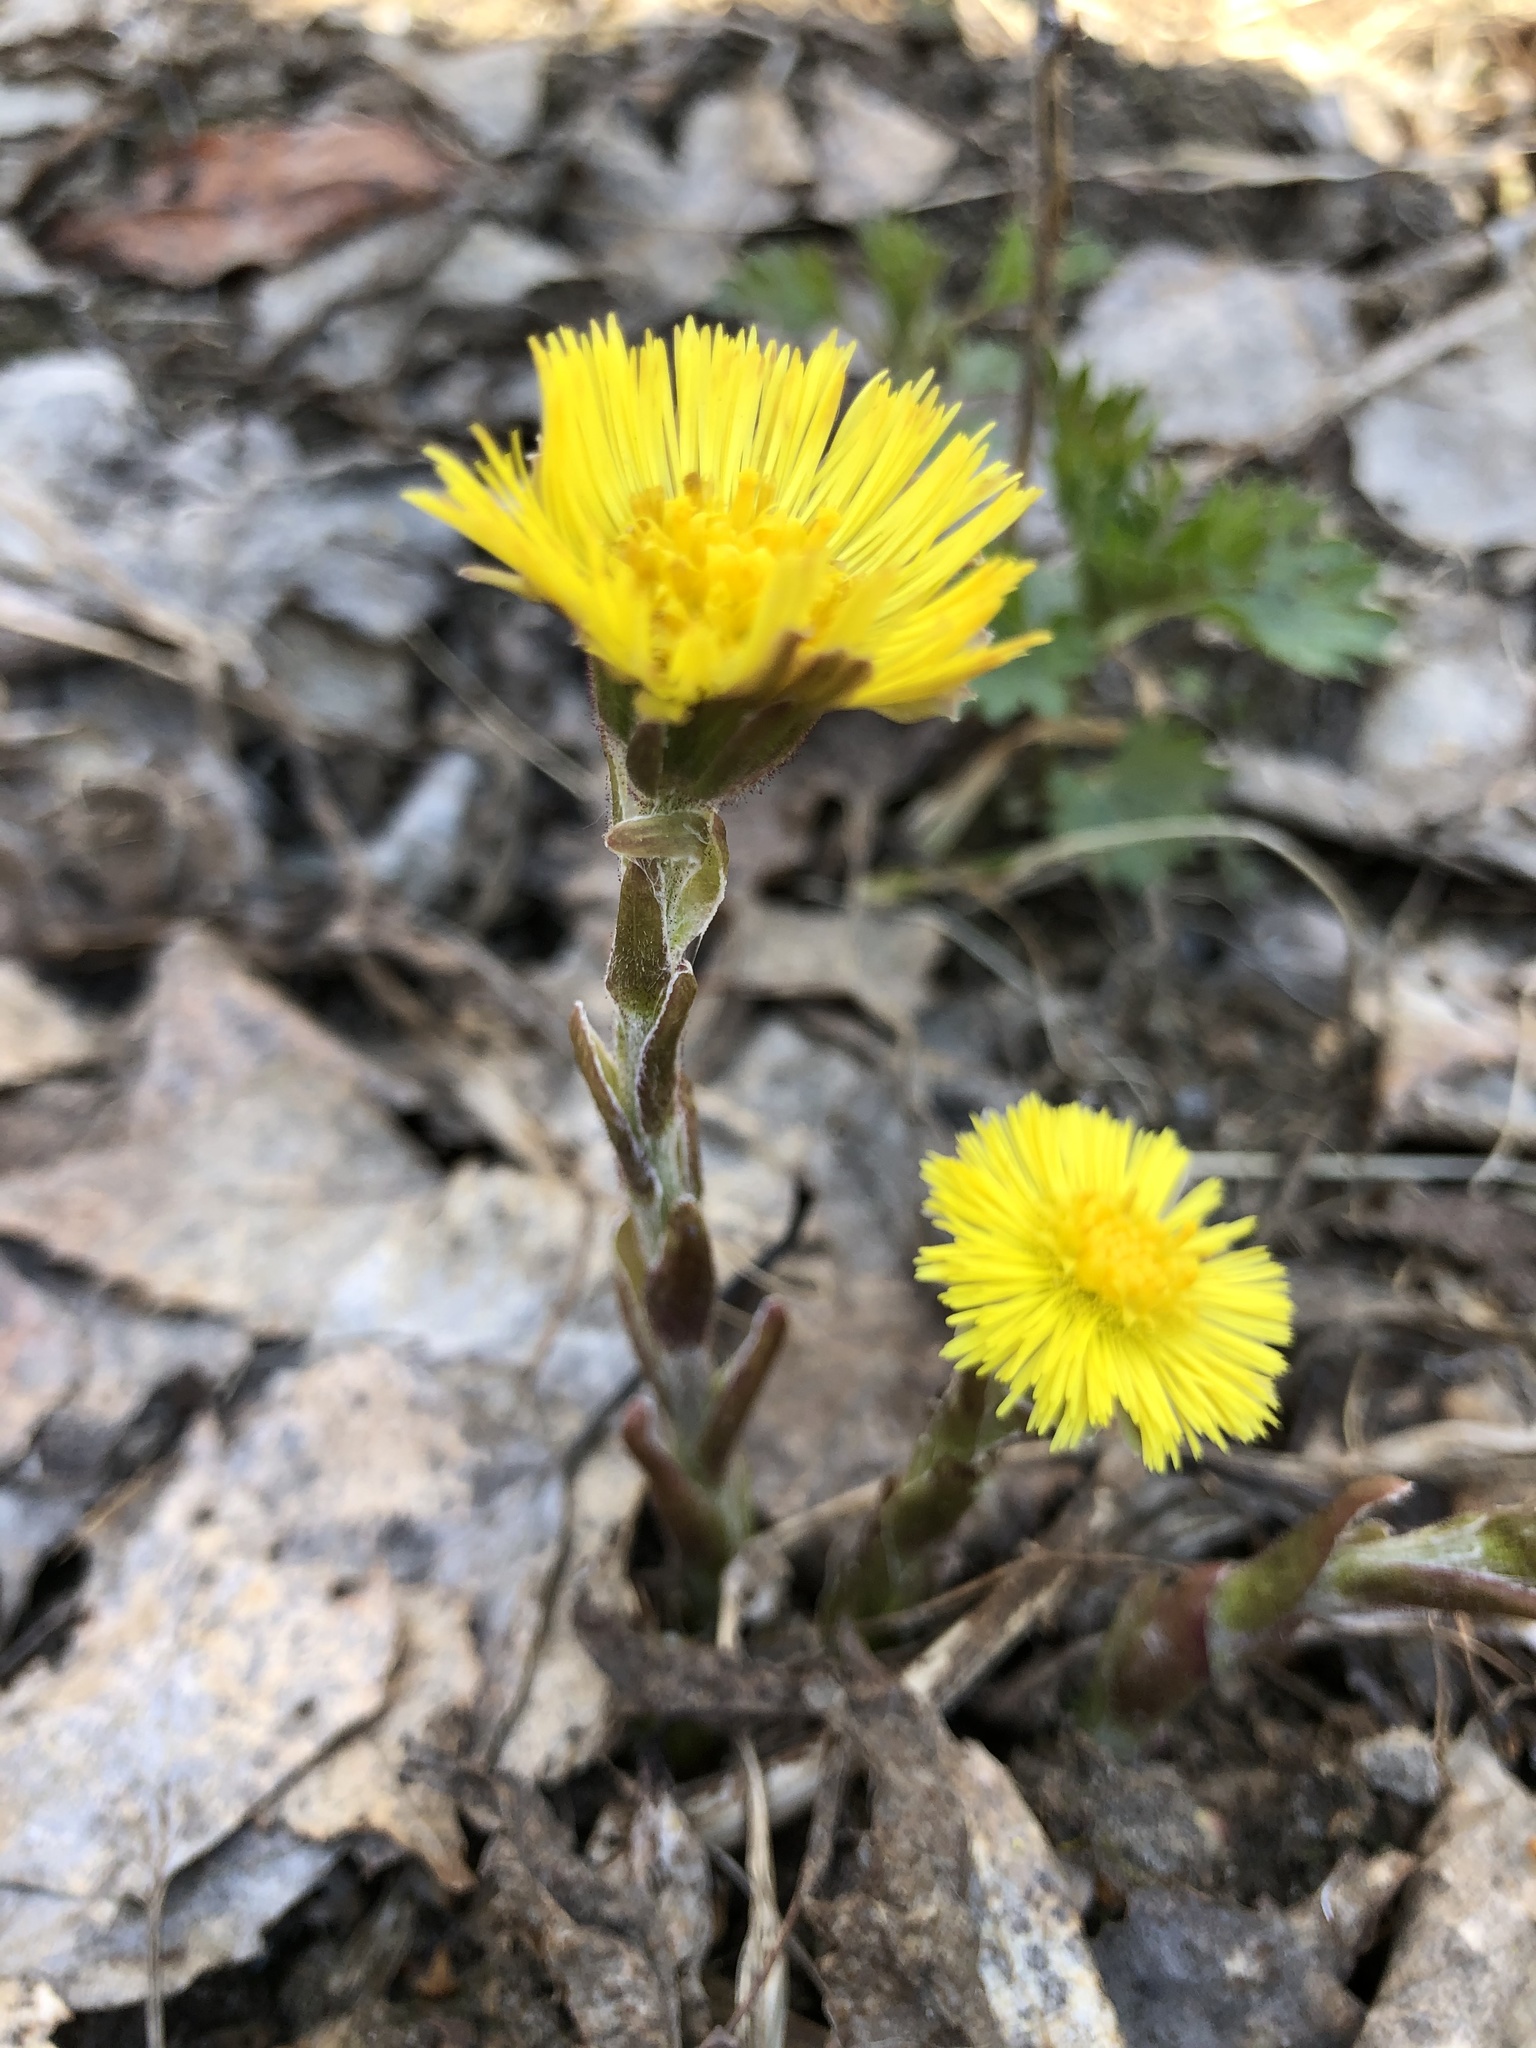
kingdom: Plantae
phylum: Tracheophyta
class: Magnoliopsida
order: Asterales
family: Asteraceae
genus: Tussilago
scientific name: Tussilago farfara
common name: Coltsfoot
